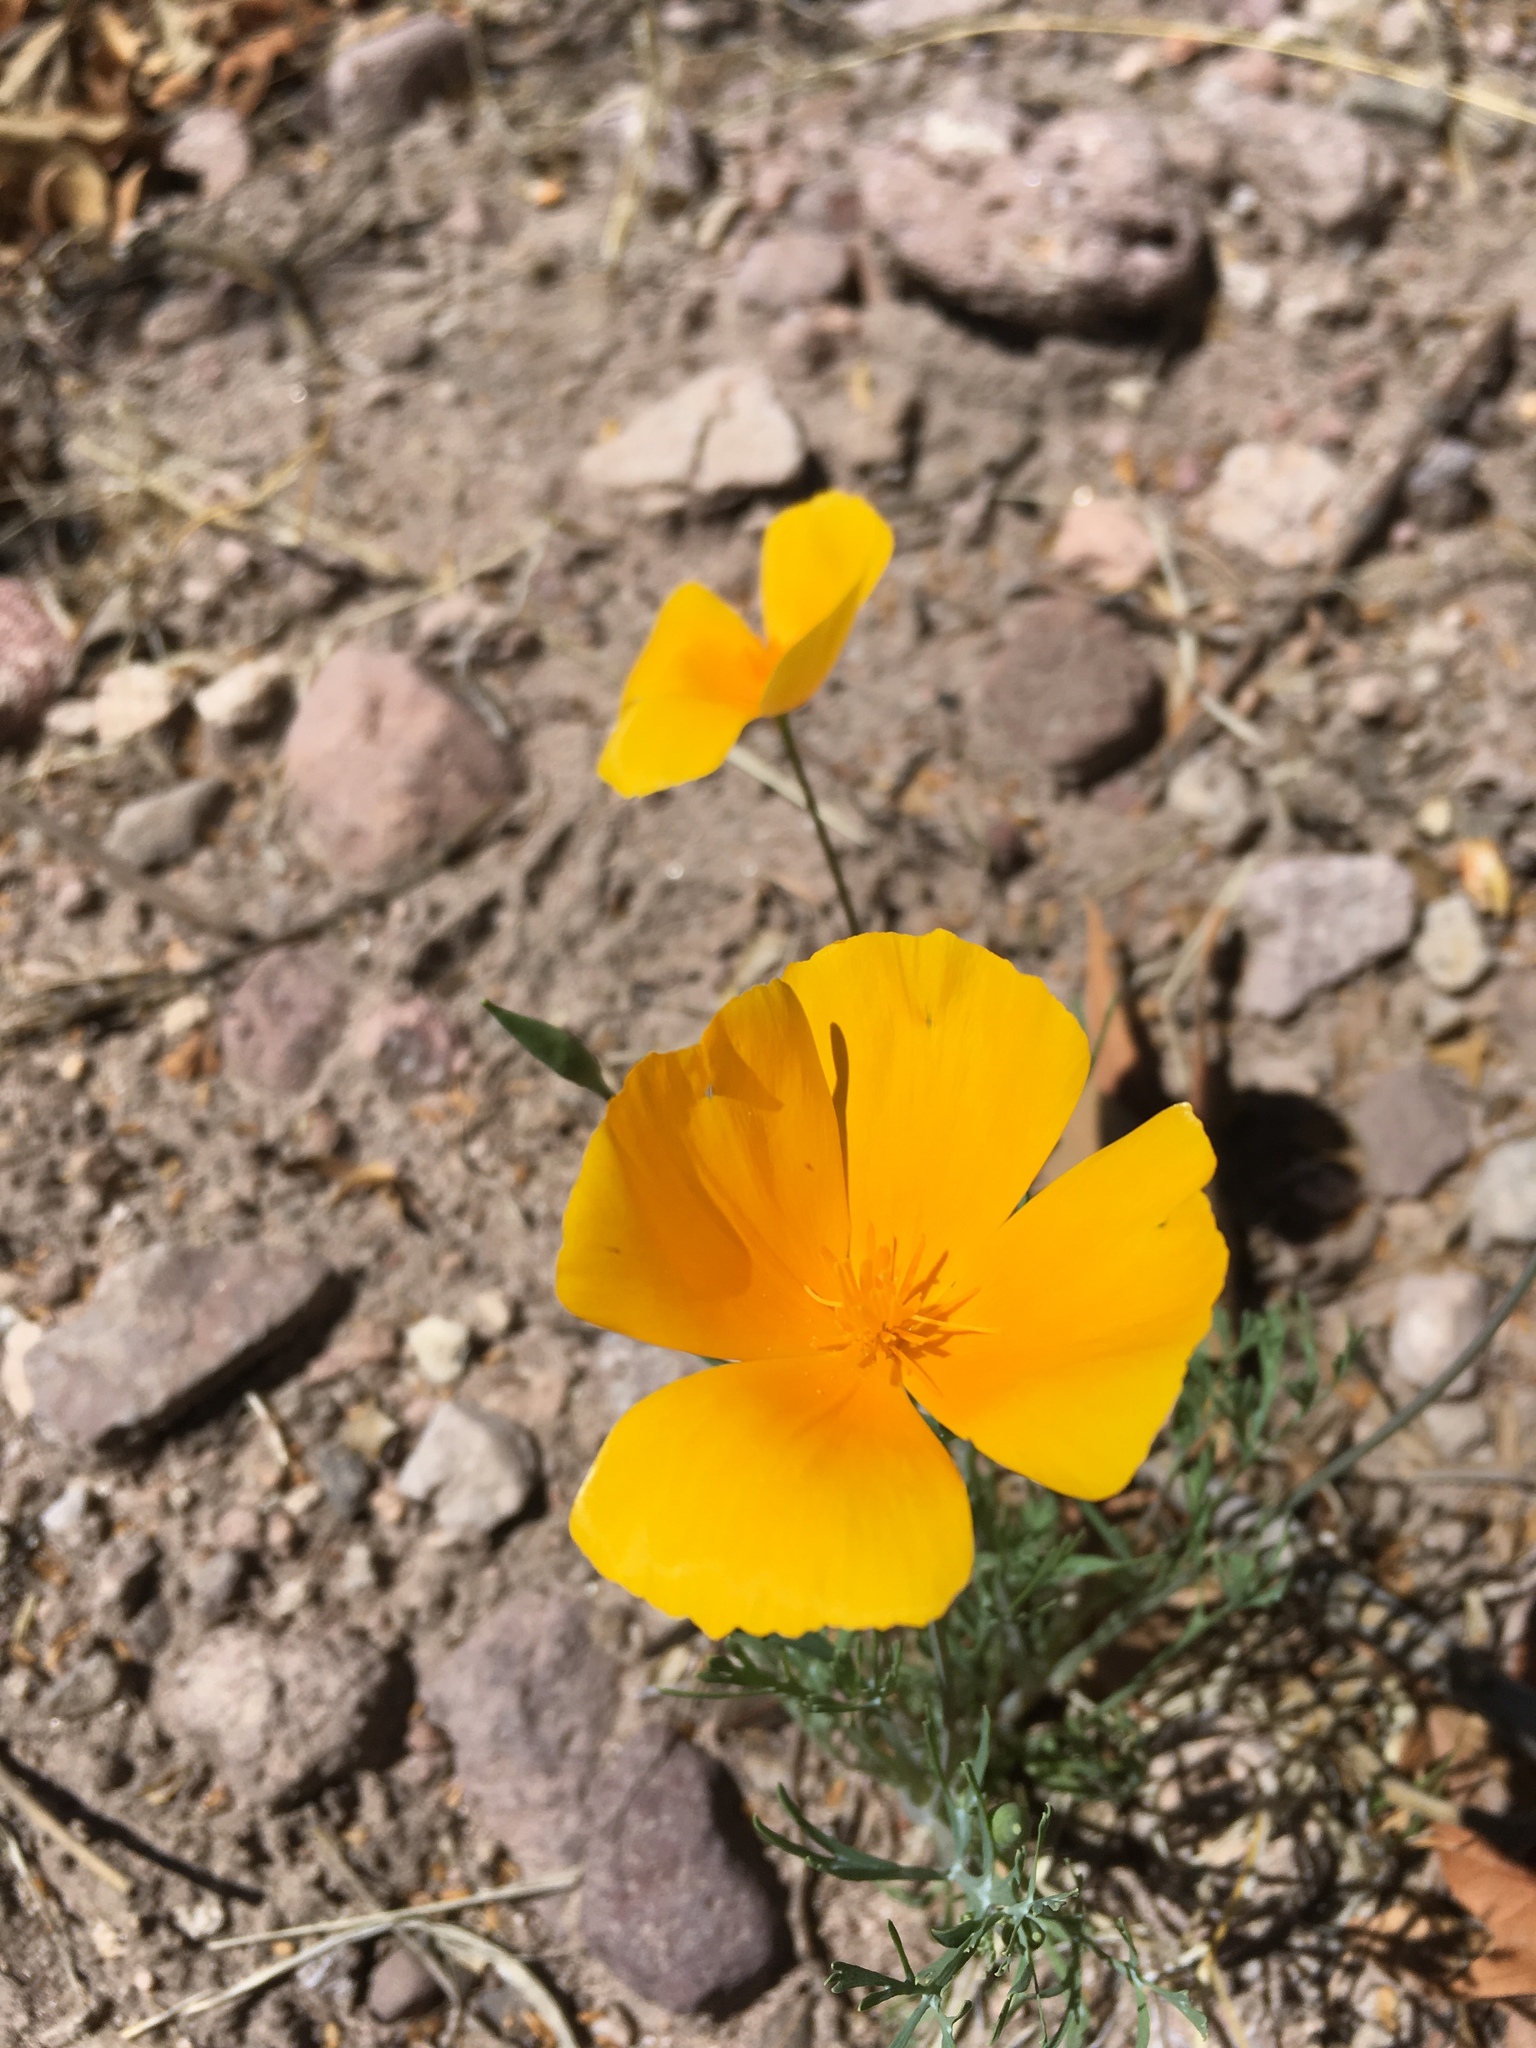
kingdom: Plantae
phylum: Tracheophyta
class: Magnoliopsida
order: Ranunculales
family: Papaveraceae
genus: Eschscholzia
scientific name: Eschscholzia californica
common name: California poppy
